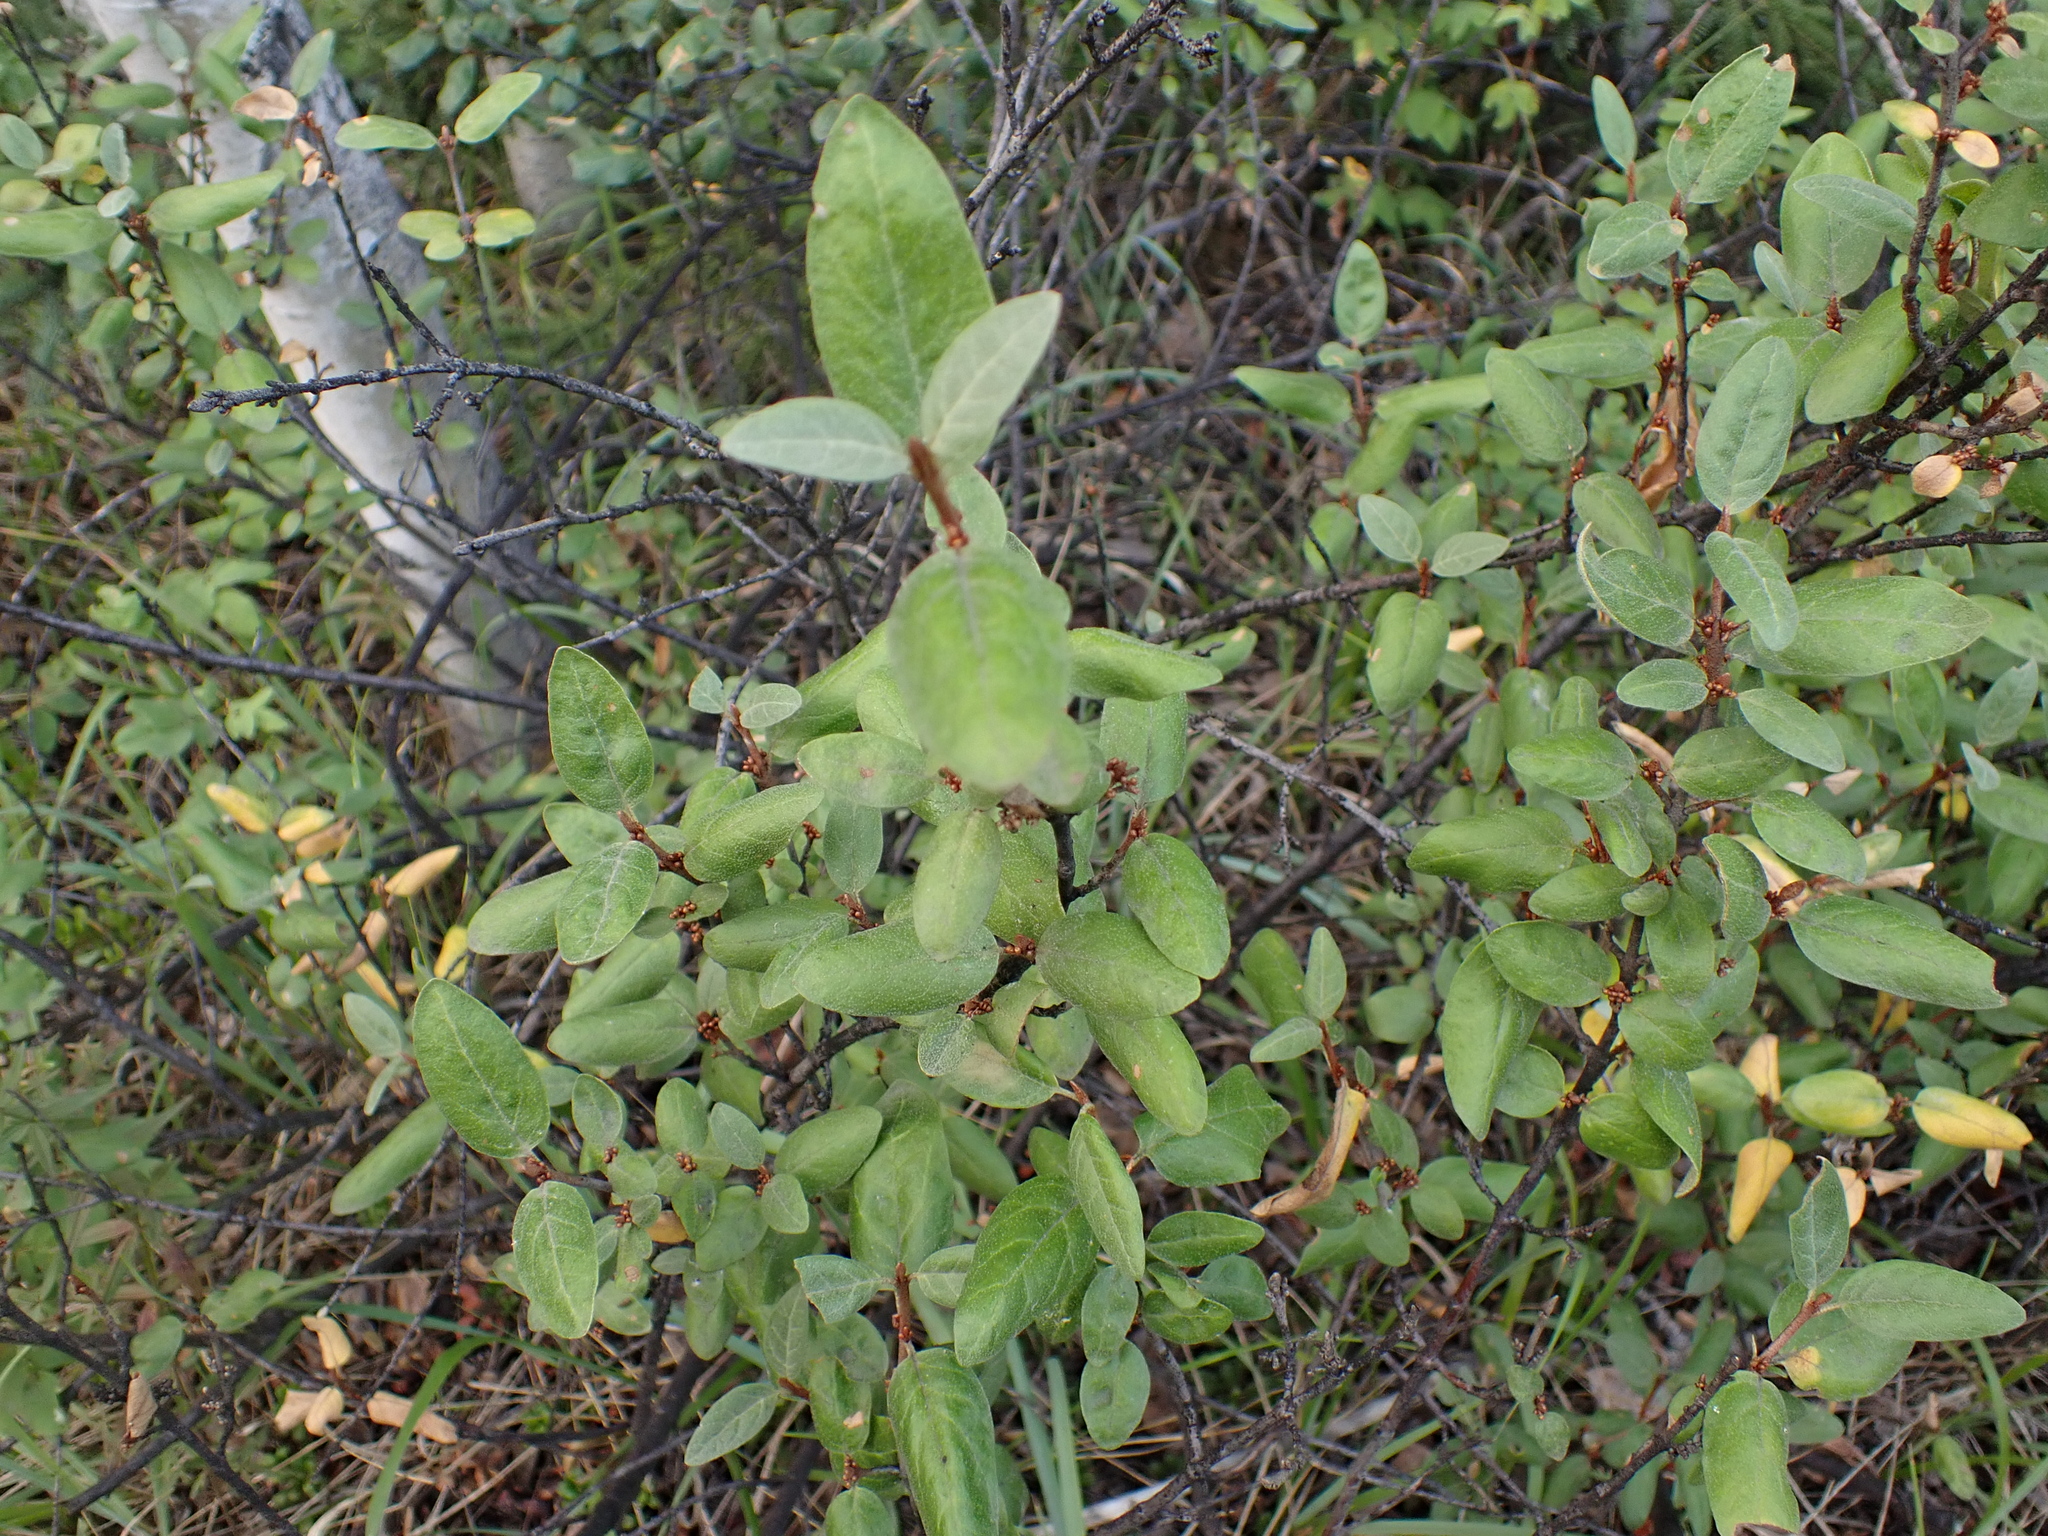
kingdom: Plantae
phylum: Tracheophyta
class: Magnoliopsida
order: Rosales
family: Elaeagnaceae
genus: Shepherdia
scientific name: Shepherdia canadensis
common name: Soapberry
